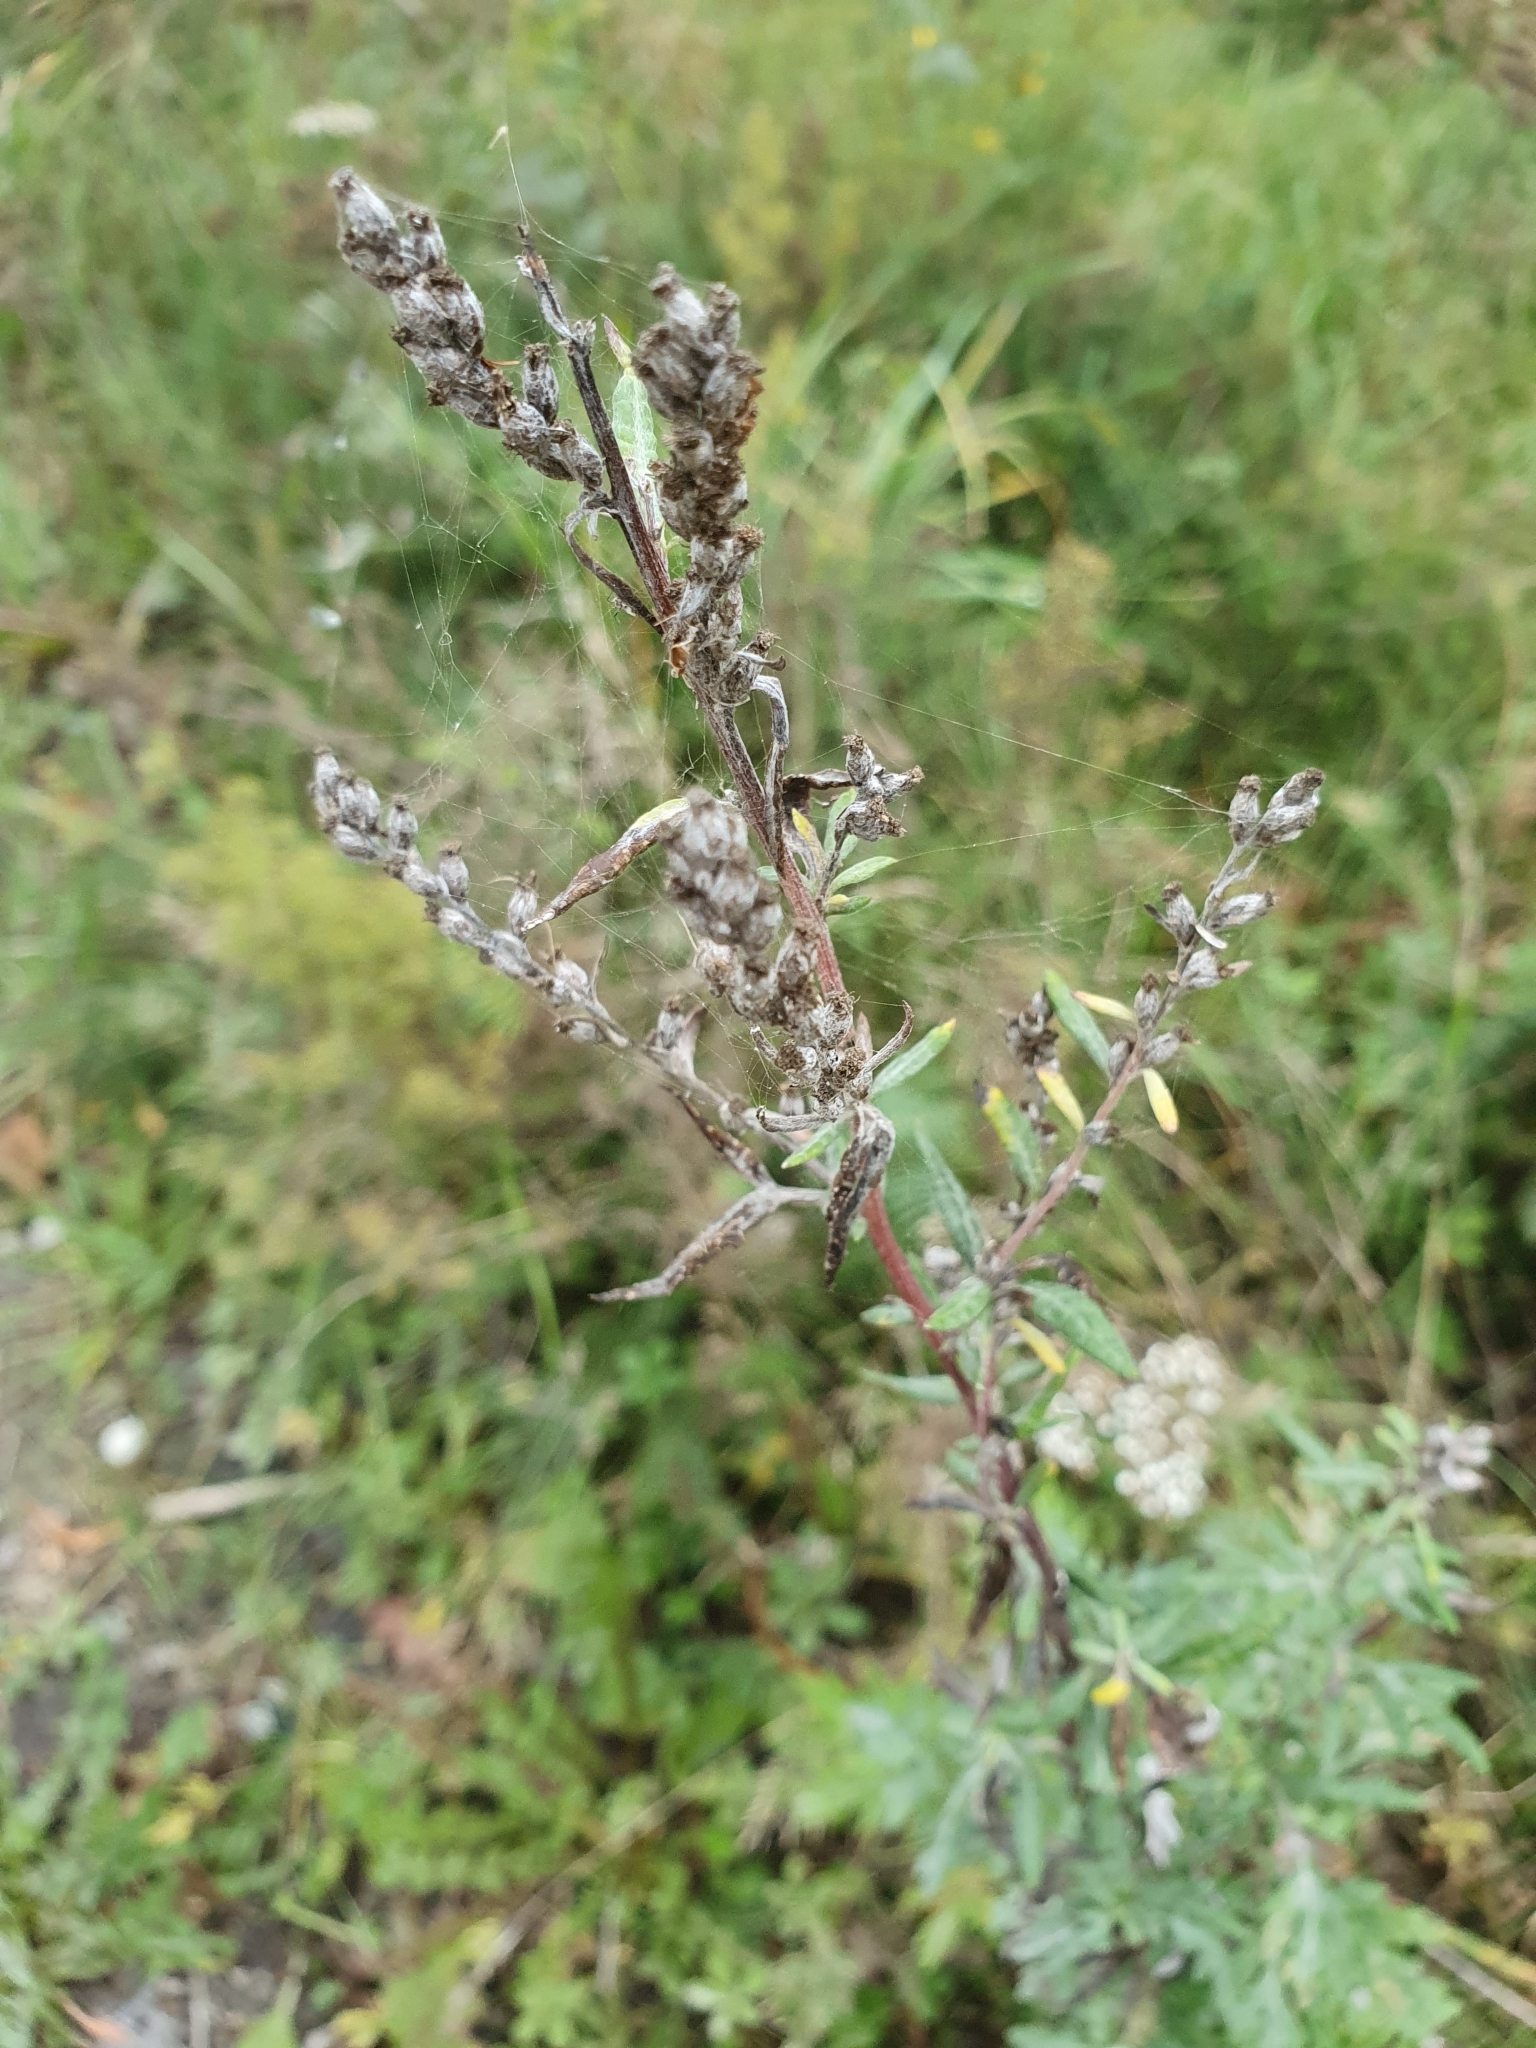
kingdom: Plantae
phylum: Tracheophyta
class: Magnoliopsida
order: Asterales
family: Asteraceae
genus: Artemisia
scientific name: Artemisia vulgaris
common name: Mugwort
